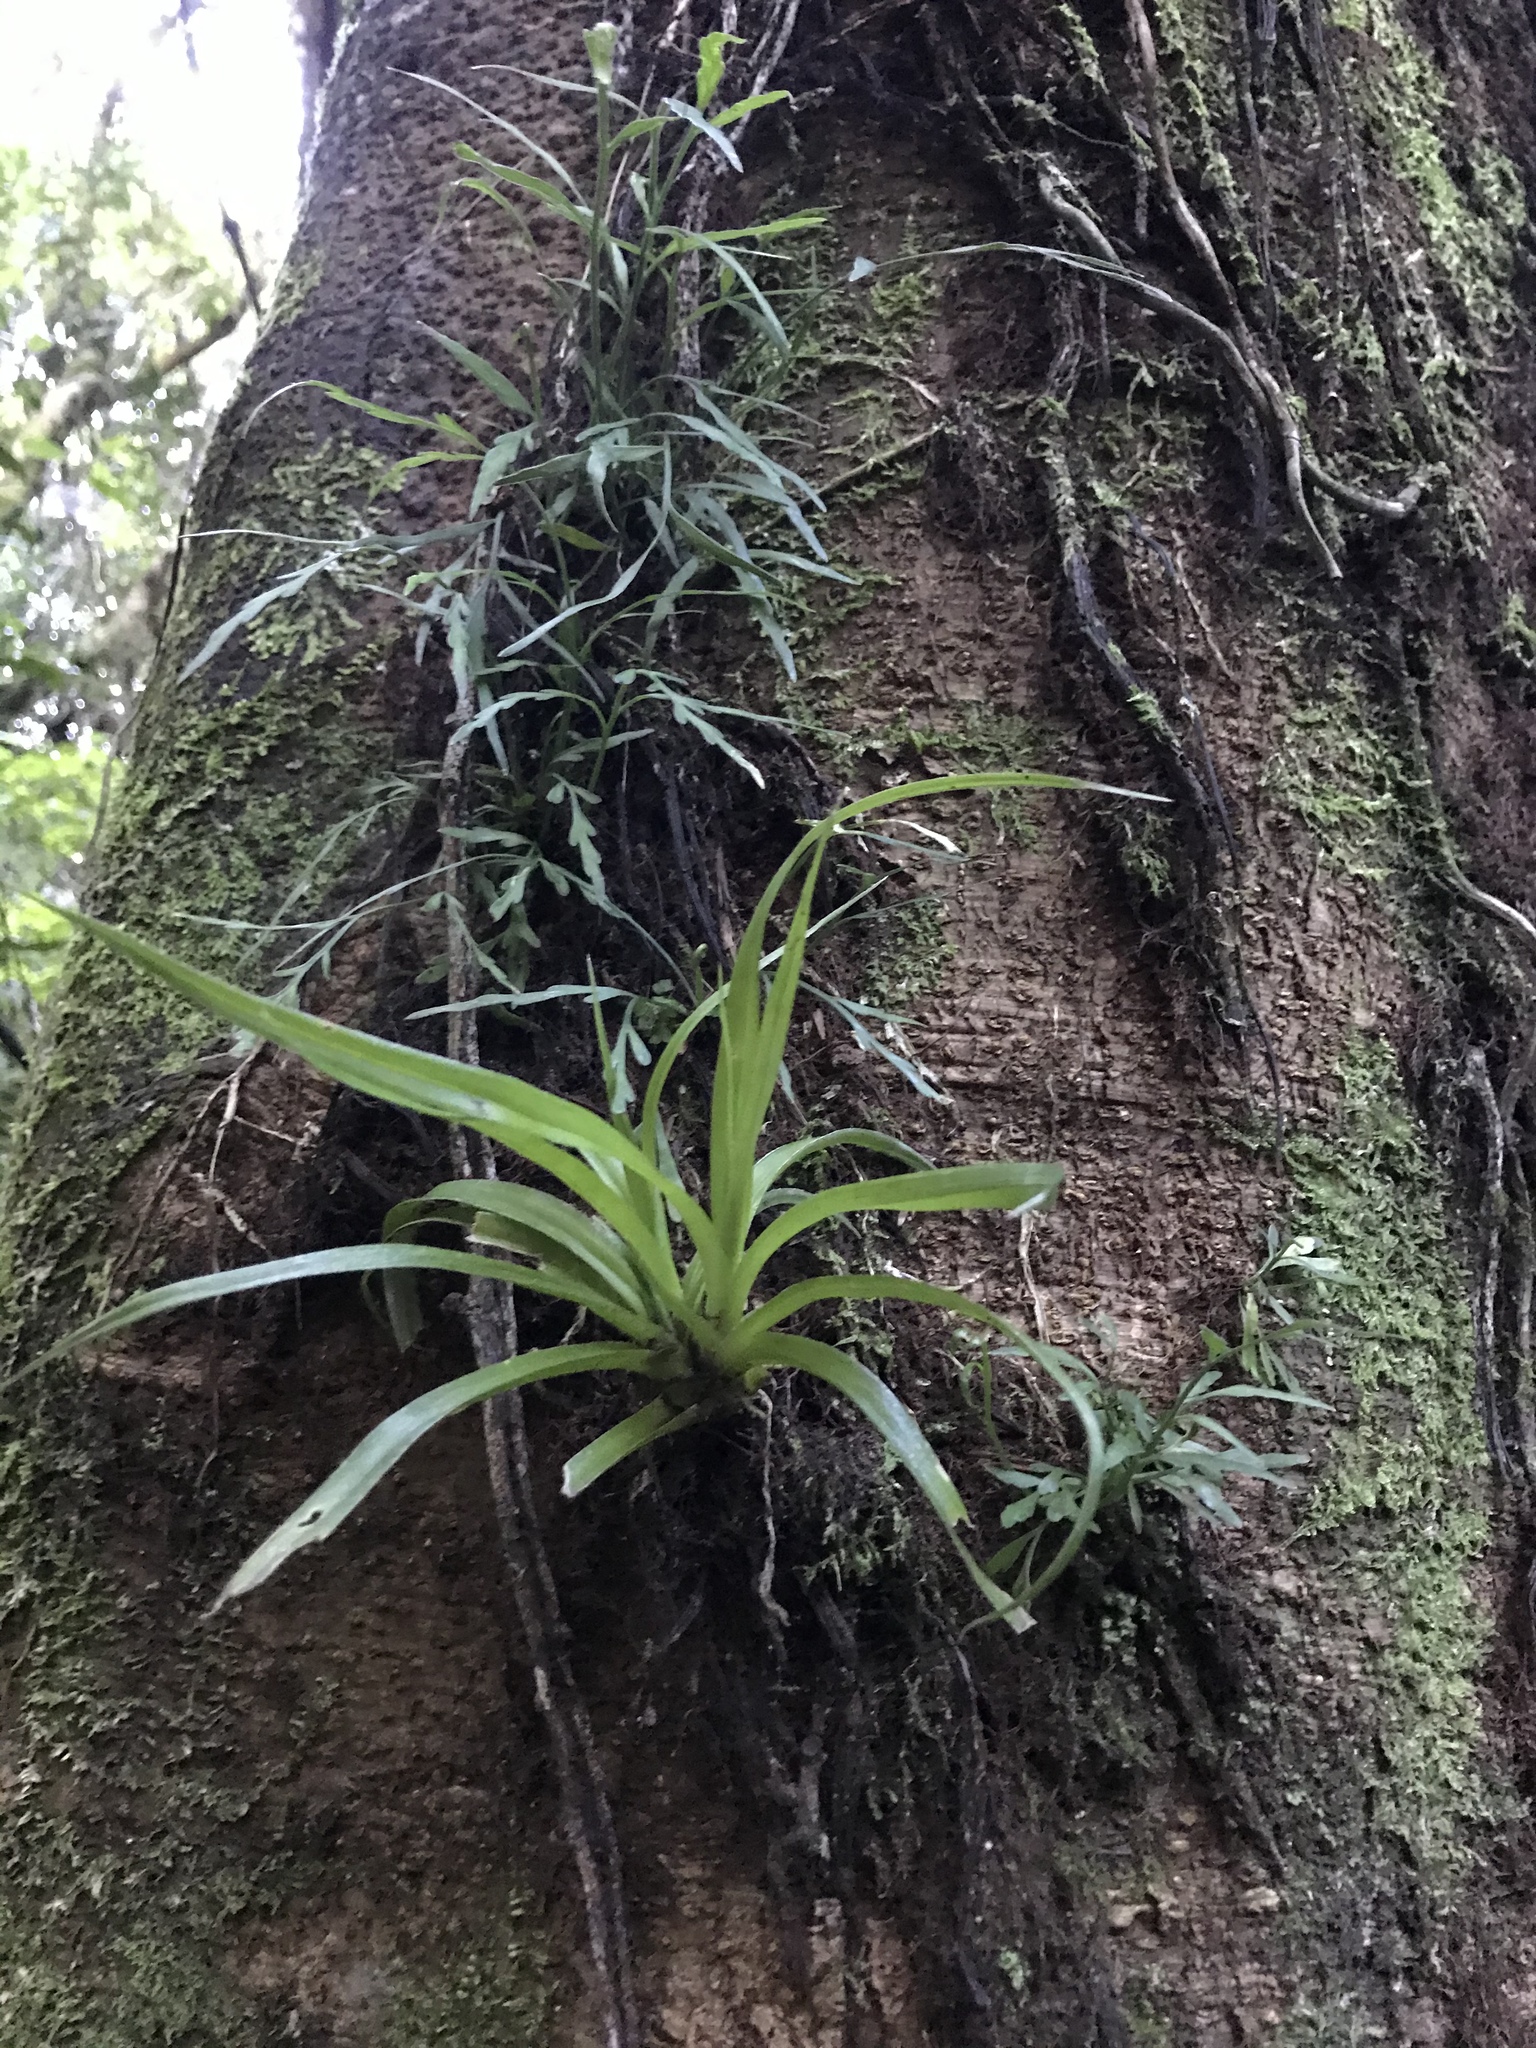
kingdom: Plantae
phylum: Tracheophyta
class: Liliopsida
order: Asparagales
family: Asteliaceae
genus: Astelia
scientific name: Astelia hastata
